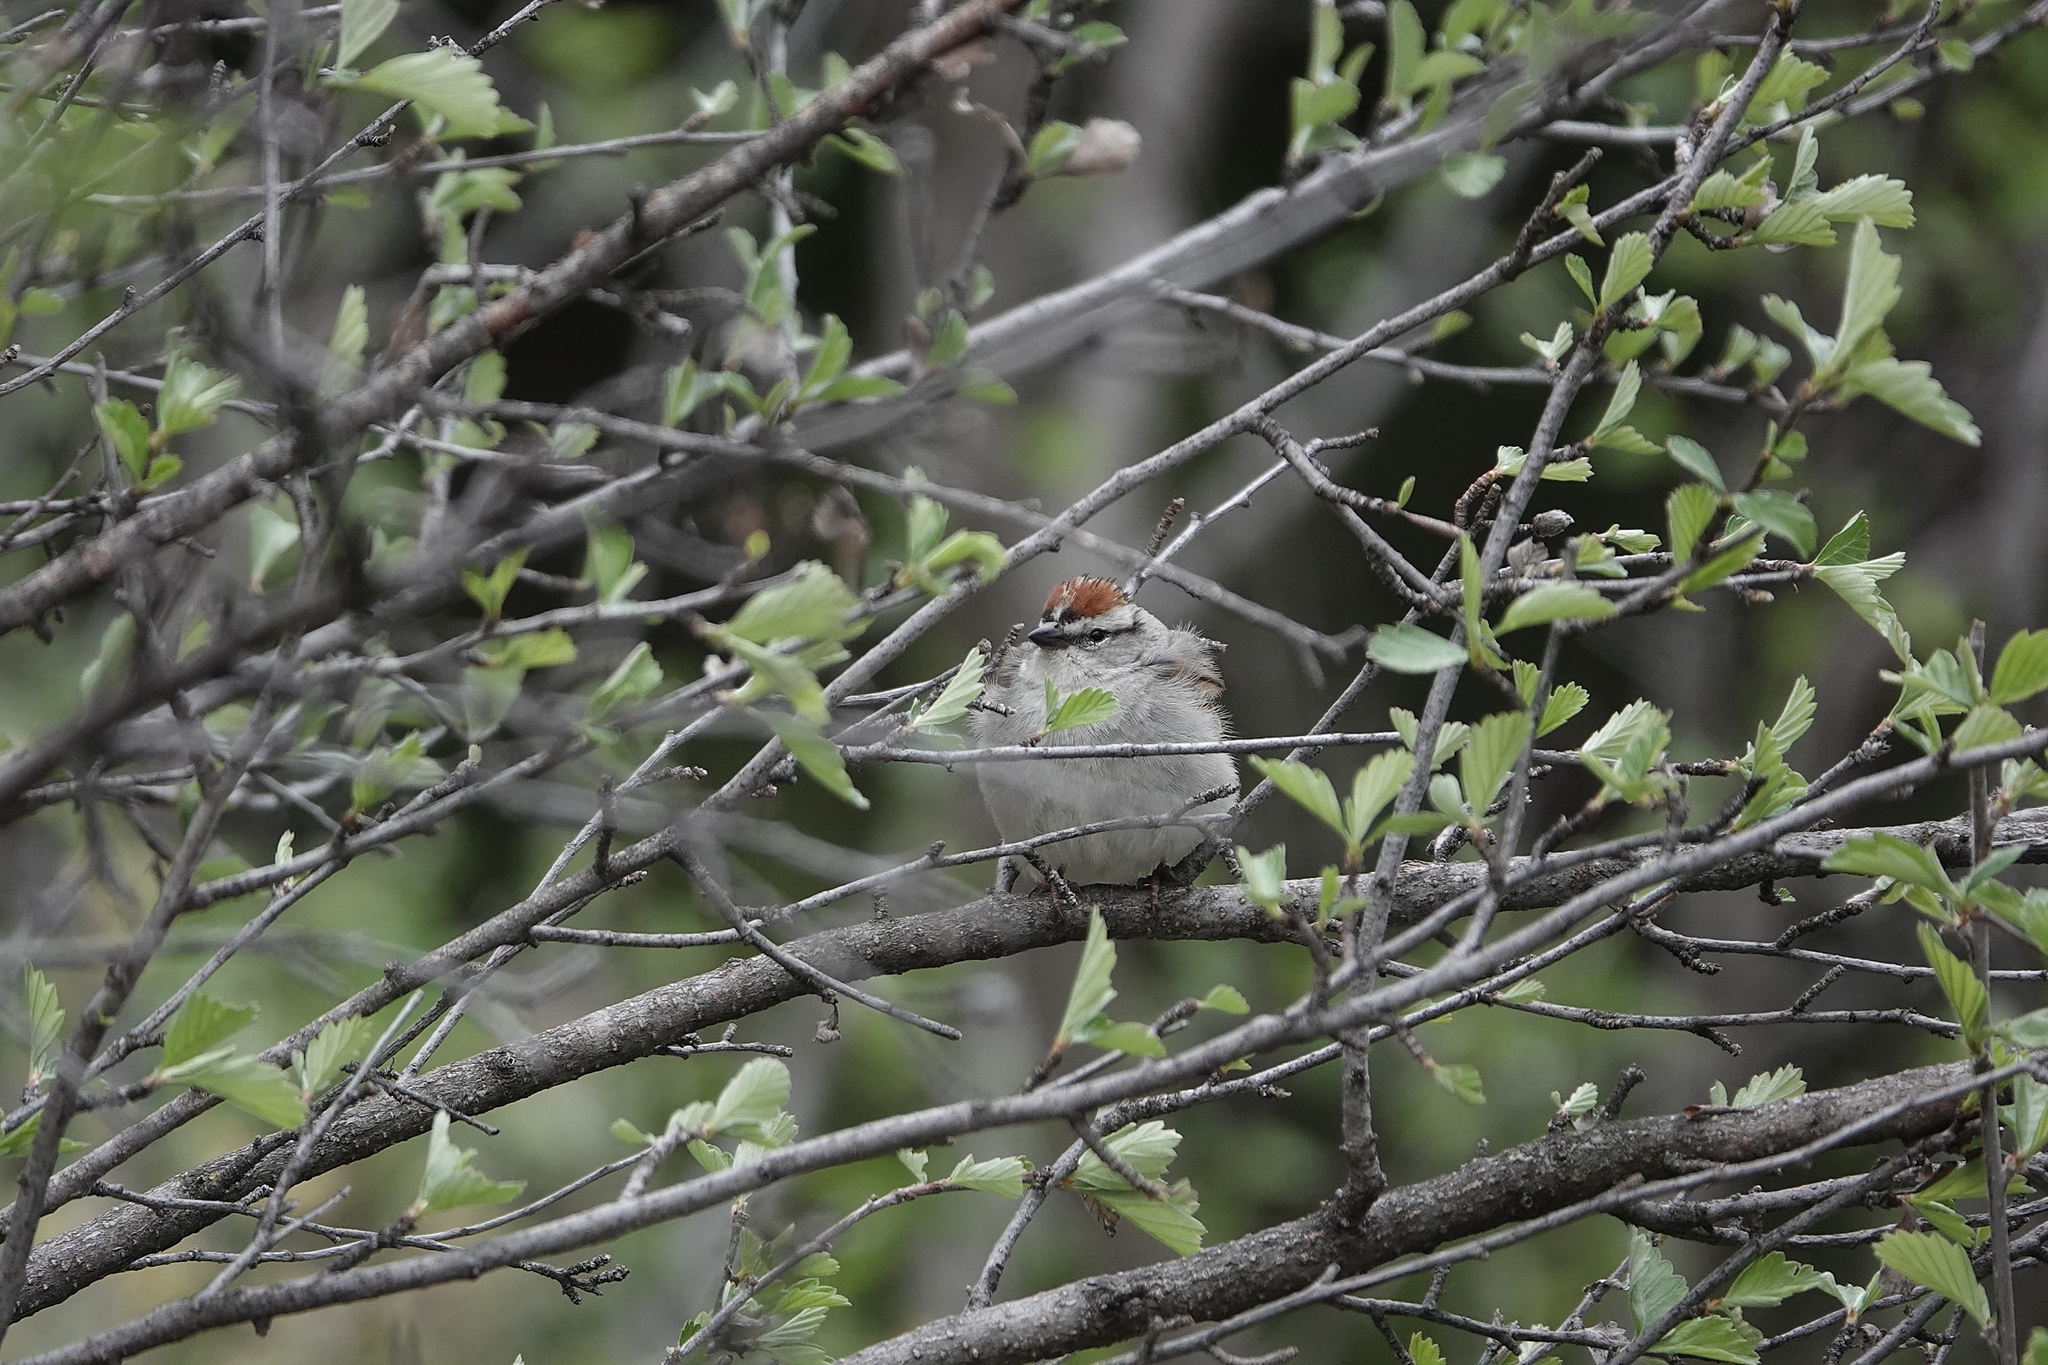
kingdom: Animalia
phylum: Chordata
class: Aves
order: Passeriformes
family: Passerellidae
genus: Spizella
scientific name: Spizella passerina
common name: Chipping sparrow
